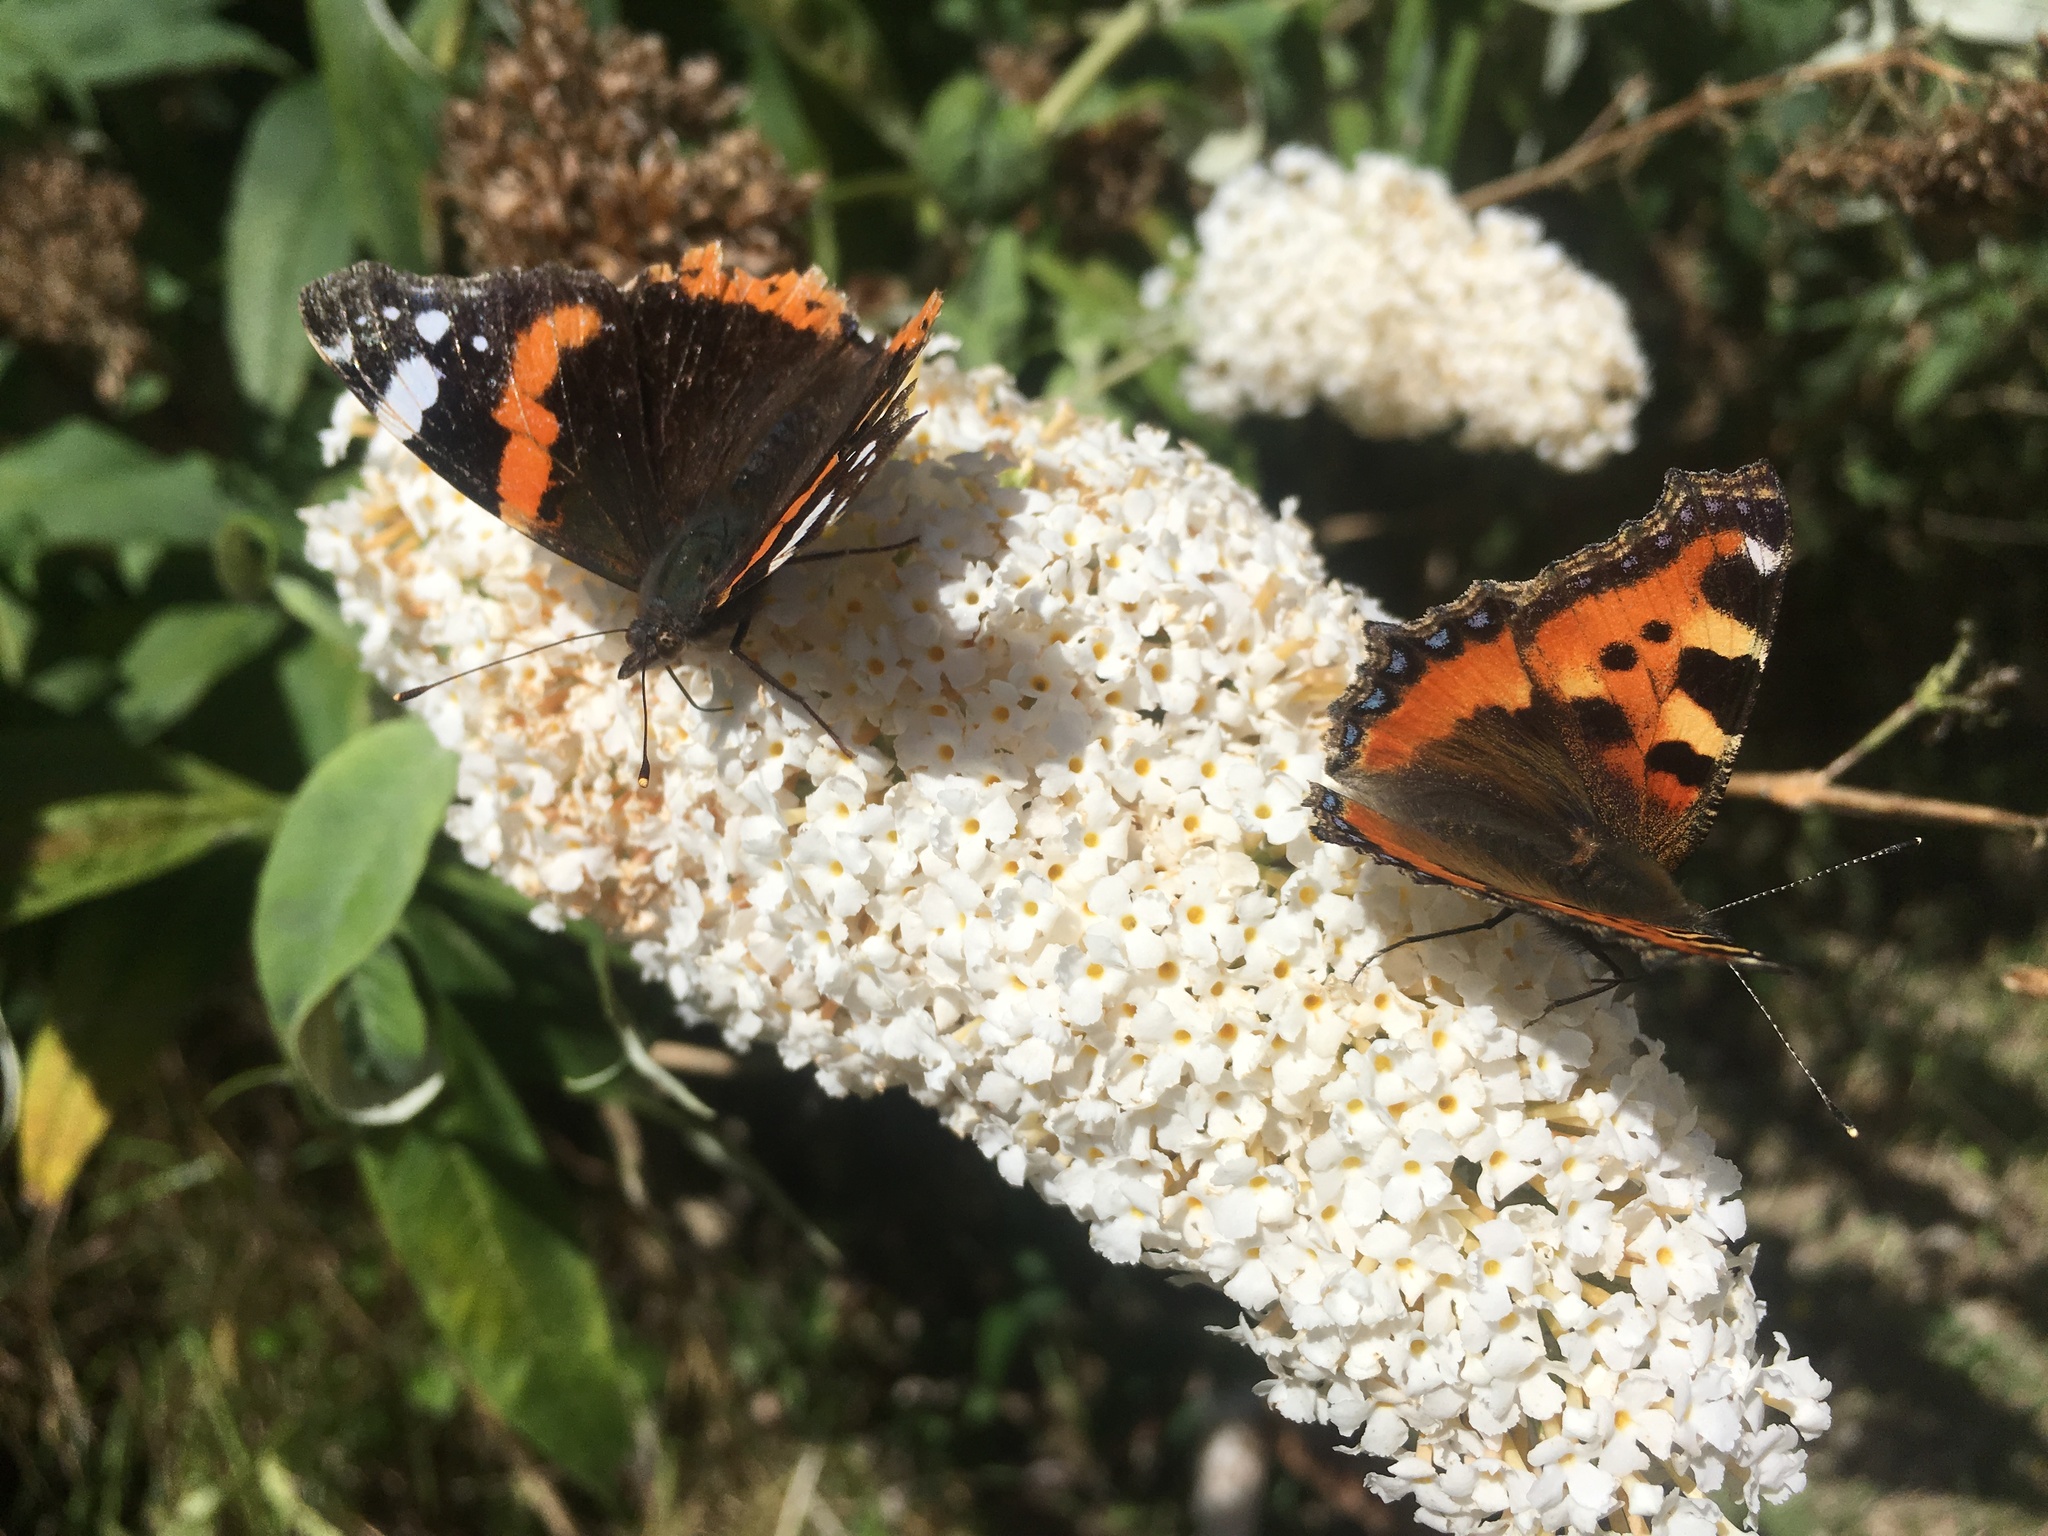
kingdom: Animalia
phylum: Arthropoda
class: Insecta
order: Lepidoptera
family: Nymphalidae
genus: Vanessa
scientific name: Vanessa atalanta
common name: Red admiral
